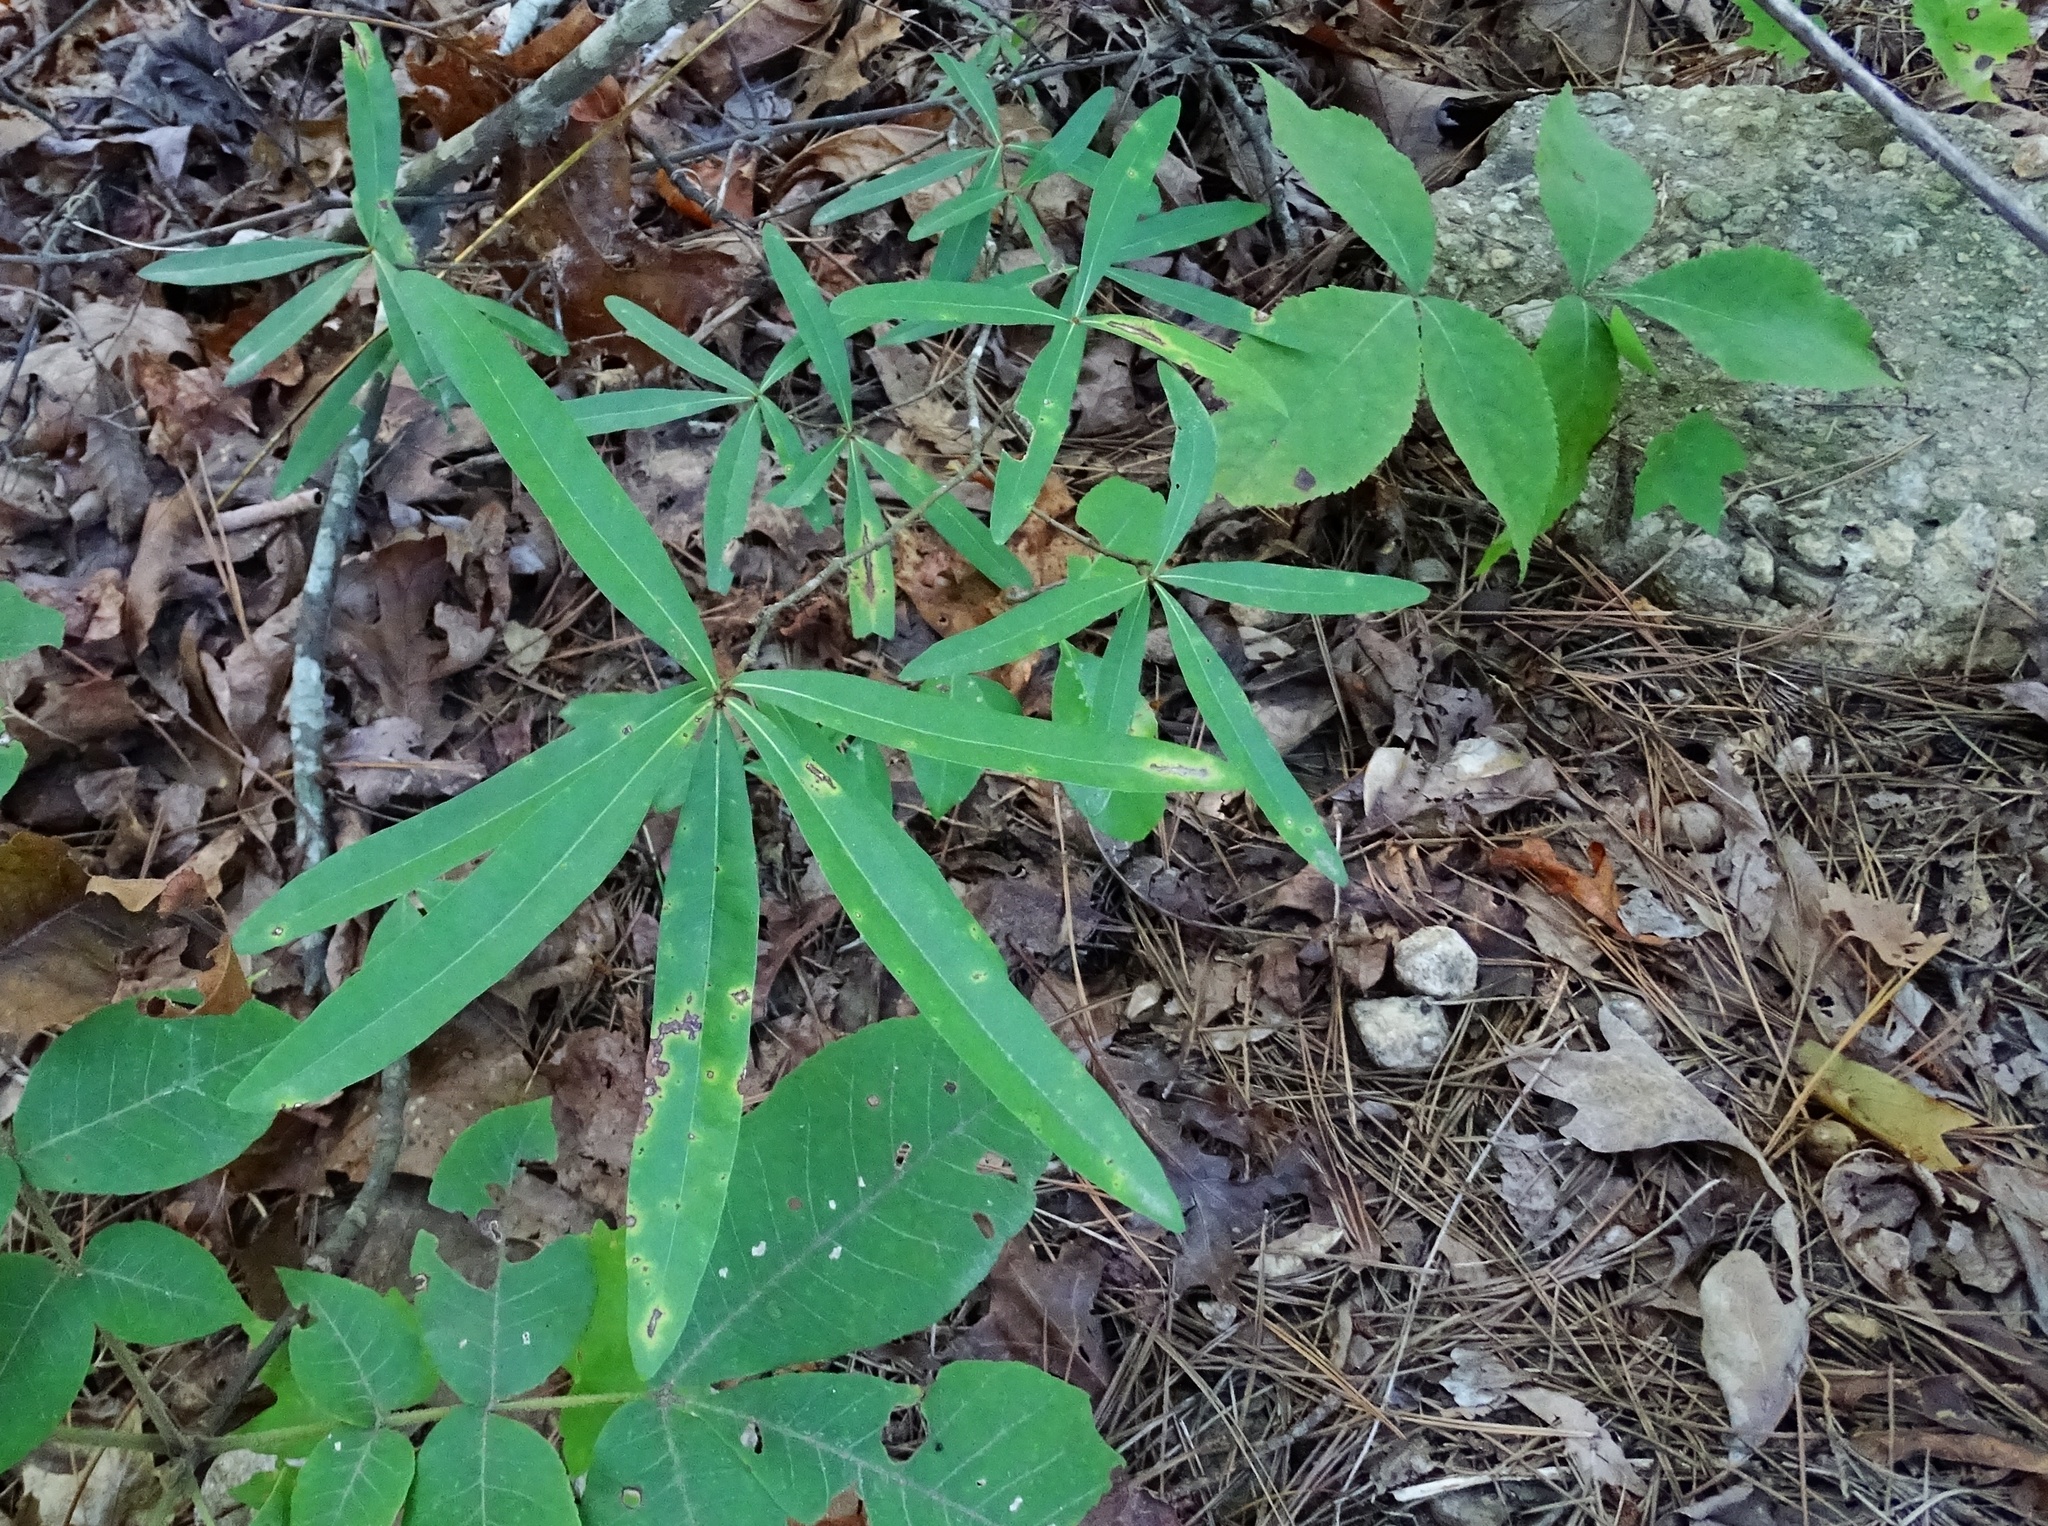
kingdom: Plantae
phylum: Tracheophyta
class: Magnoliopsida
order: Fagales
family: Fagaceae
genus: Quercus
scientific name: Quercus phellos
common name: Willow oak
